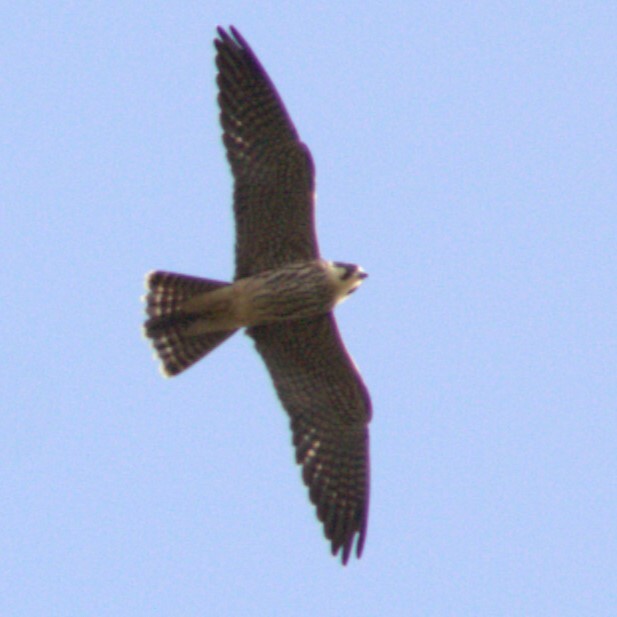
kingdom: Animalia
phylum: Chordata
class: Aves
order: Falconiformes
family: Falconidae
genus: Falco
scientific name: Falco subbuteo
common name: Eurasian hobby
